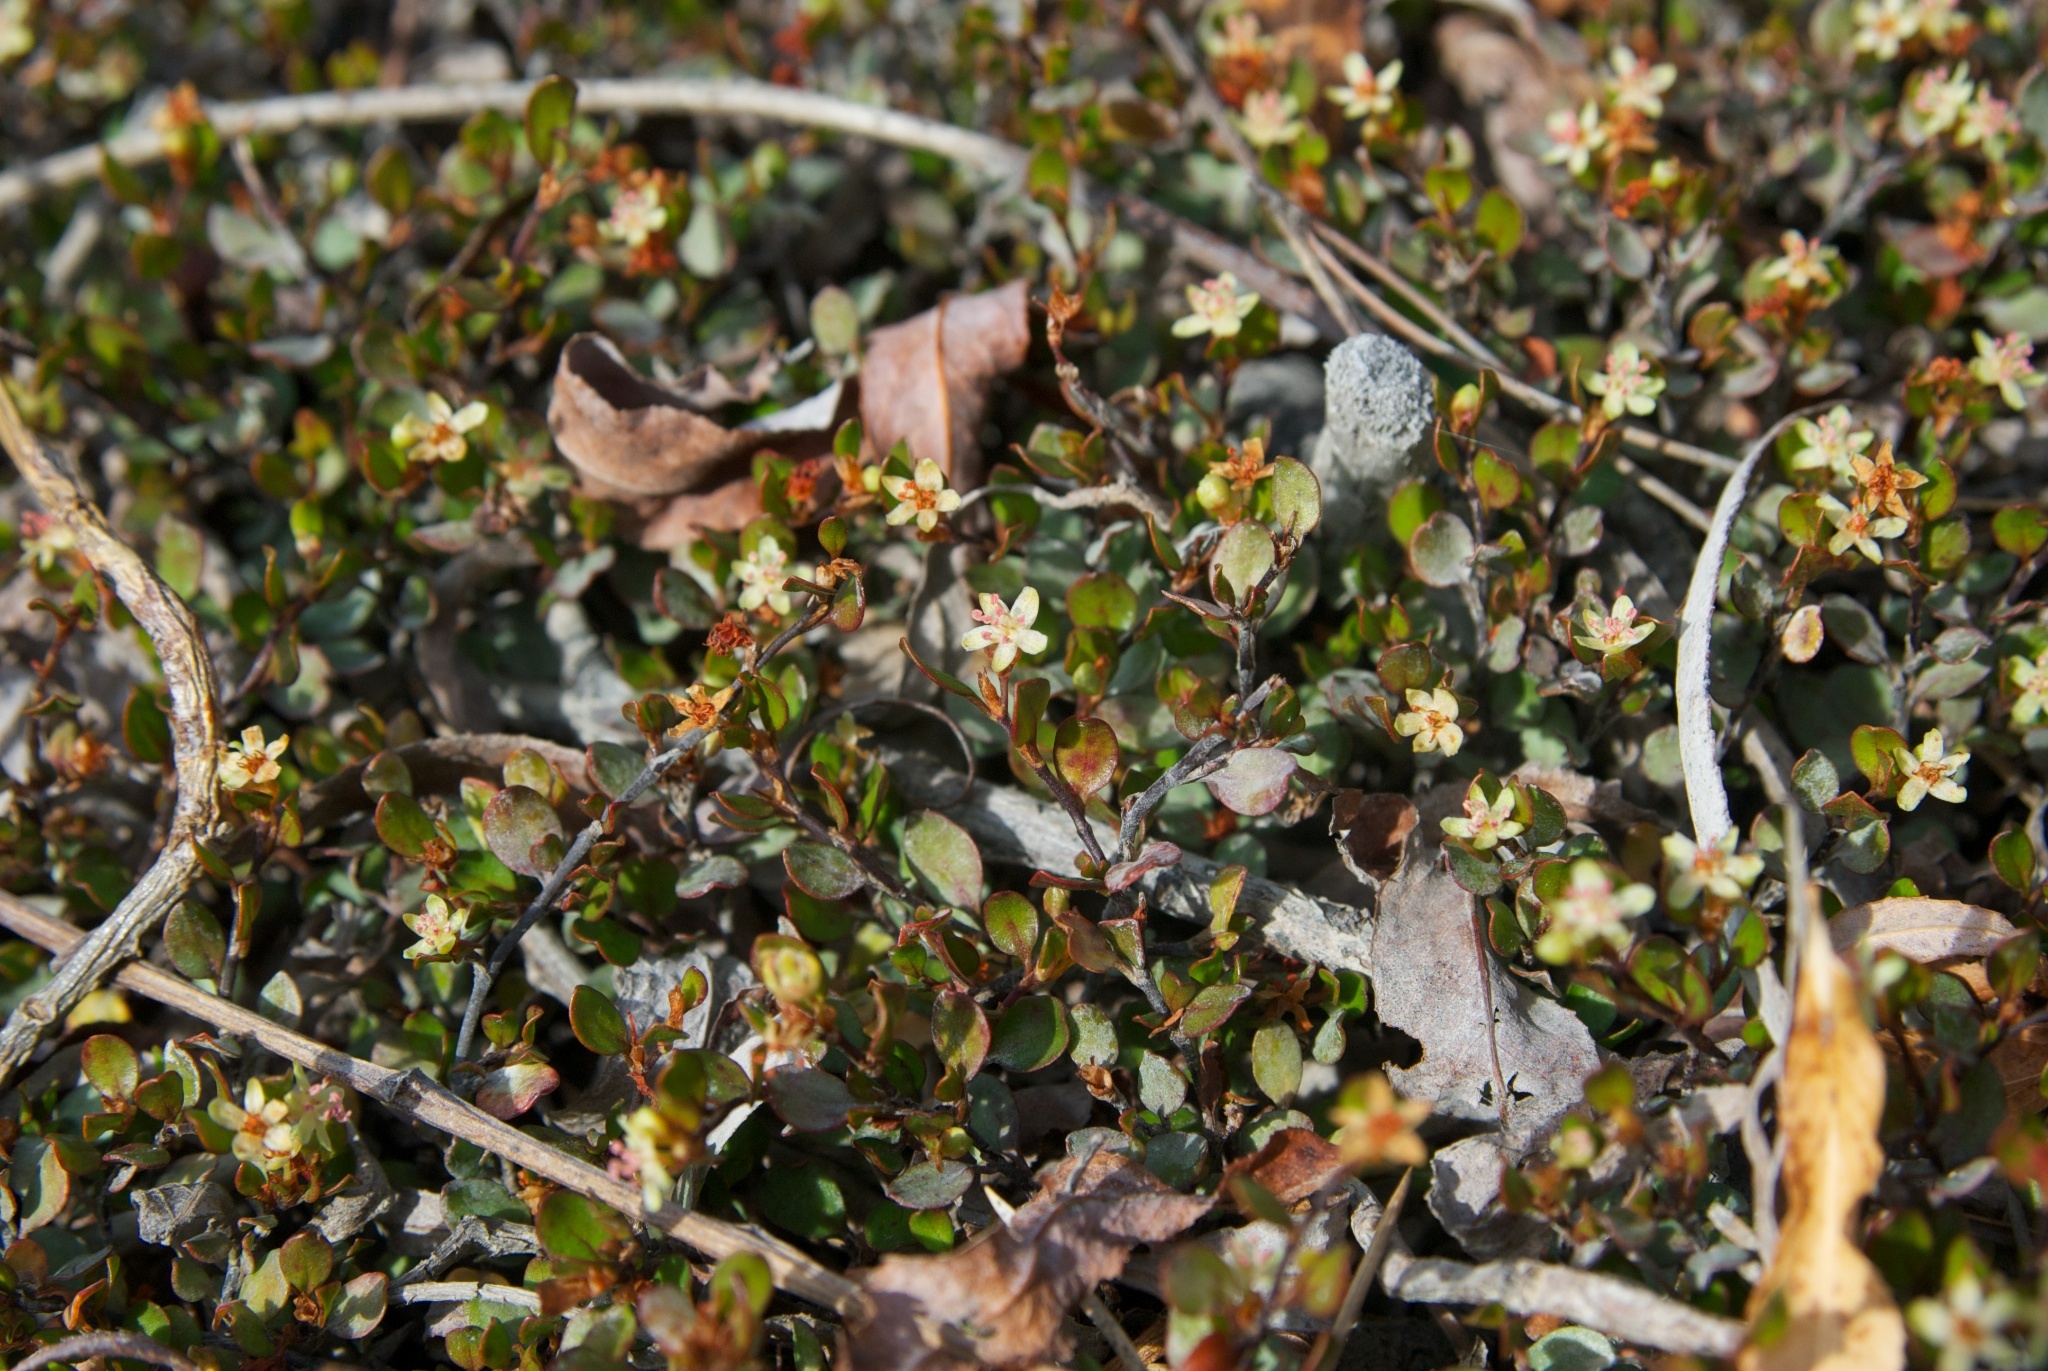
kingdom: Plantae
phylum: Tracheophyta
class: Magnoliopsida
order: Caryophyllales
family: Polygonaceae
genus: Muehlenbeckia
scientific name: Muehlenbeckia axillaris
